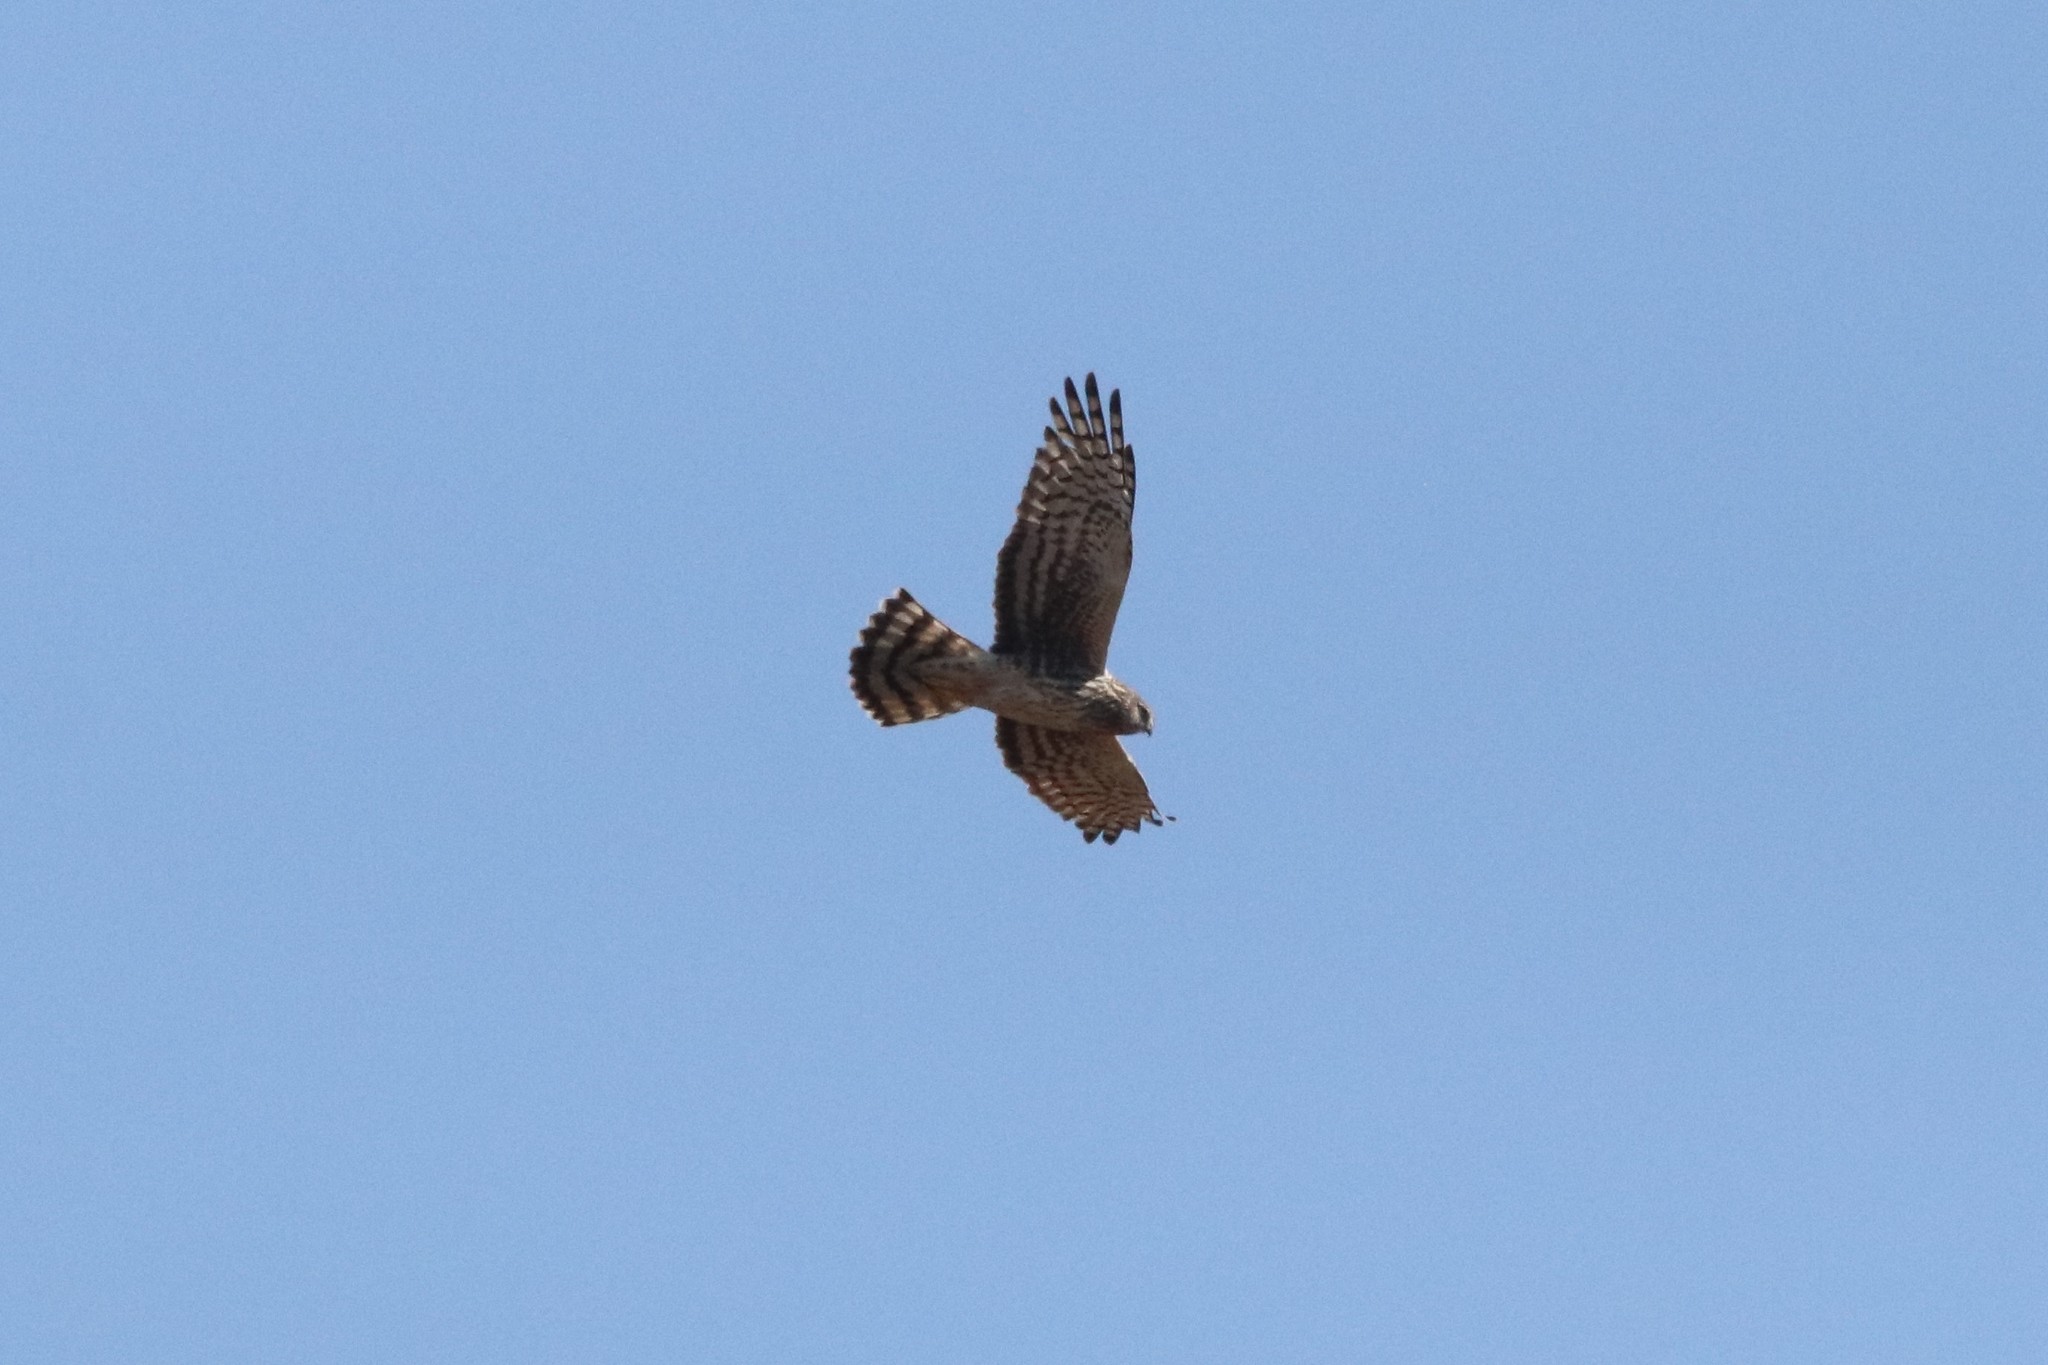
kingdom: Animalia
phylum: Chordata
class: Aves
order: Accipitriformes
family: Accipitridae
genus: Circus
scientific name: Circus cyaneus
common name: Hen harrier
